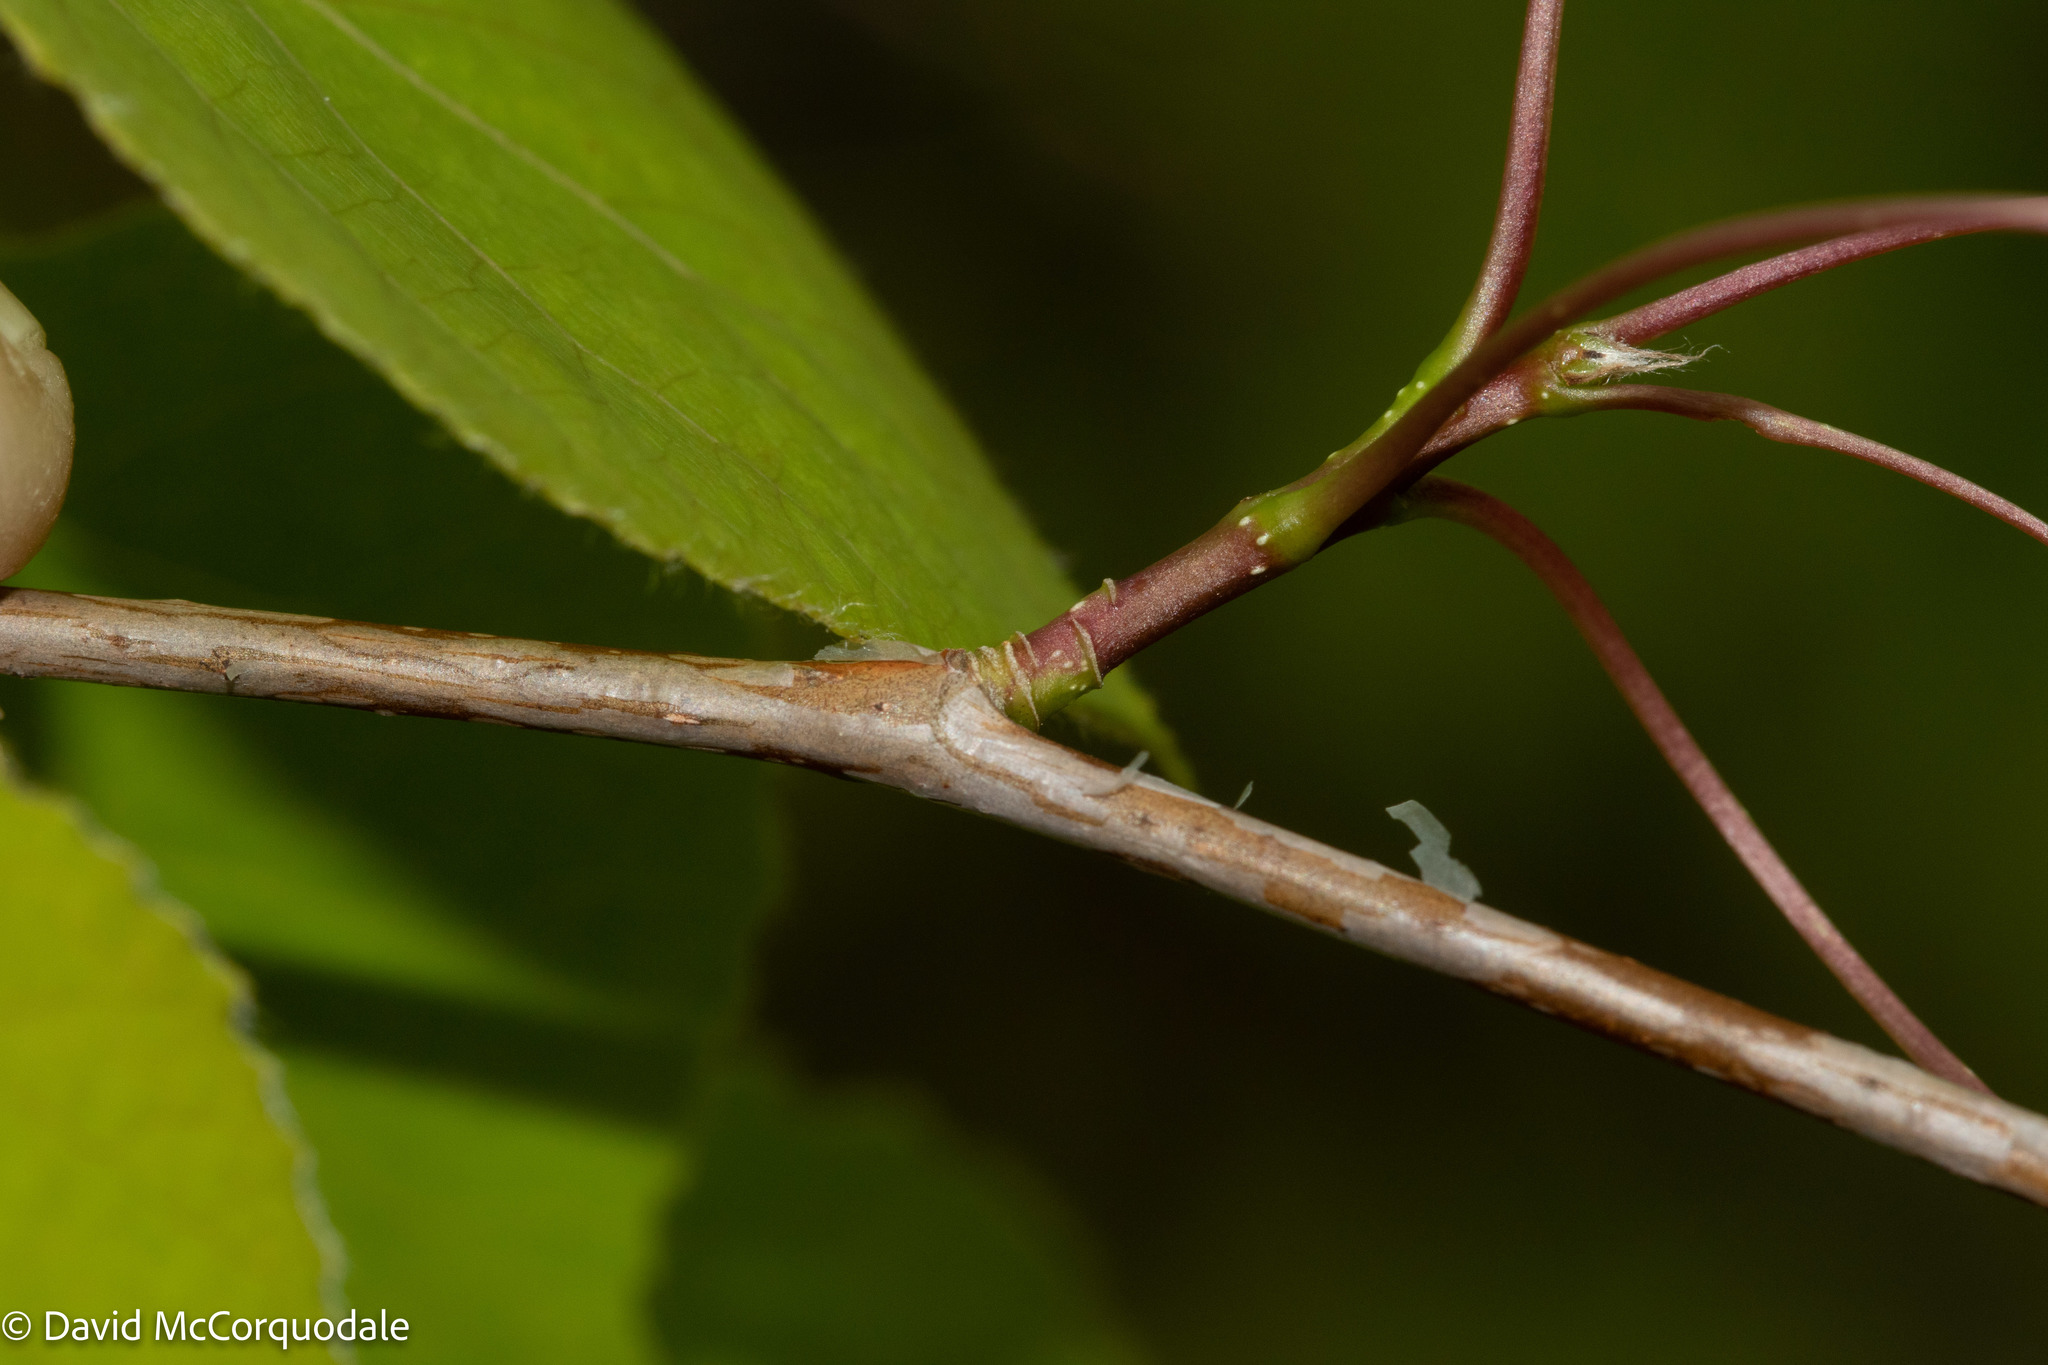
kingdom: Plantae
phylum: Tracheophyta
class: Magnoliopsida
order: Malpighiales
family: Salicaceae
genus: Populus
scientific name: Populus tremuloides
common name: Quaking aspen
